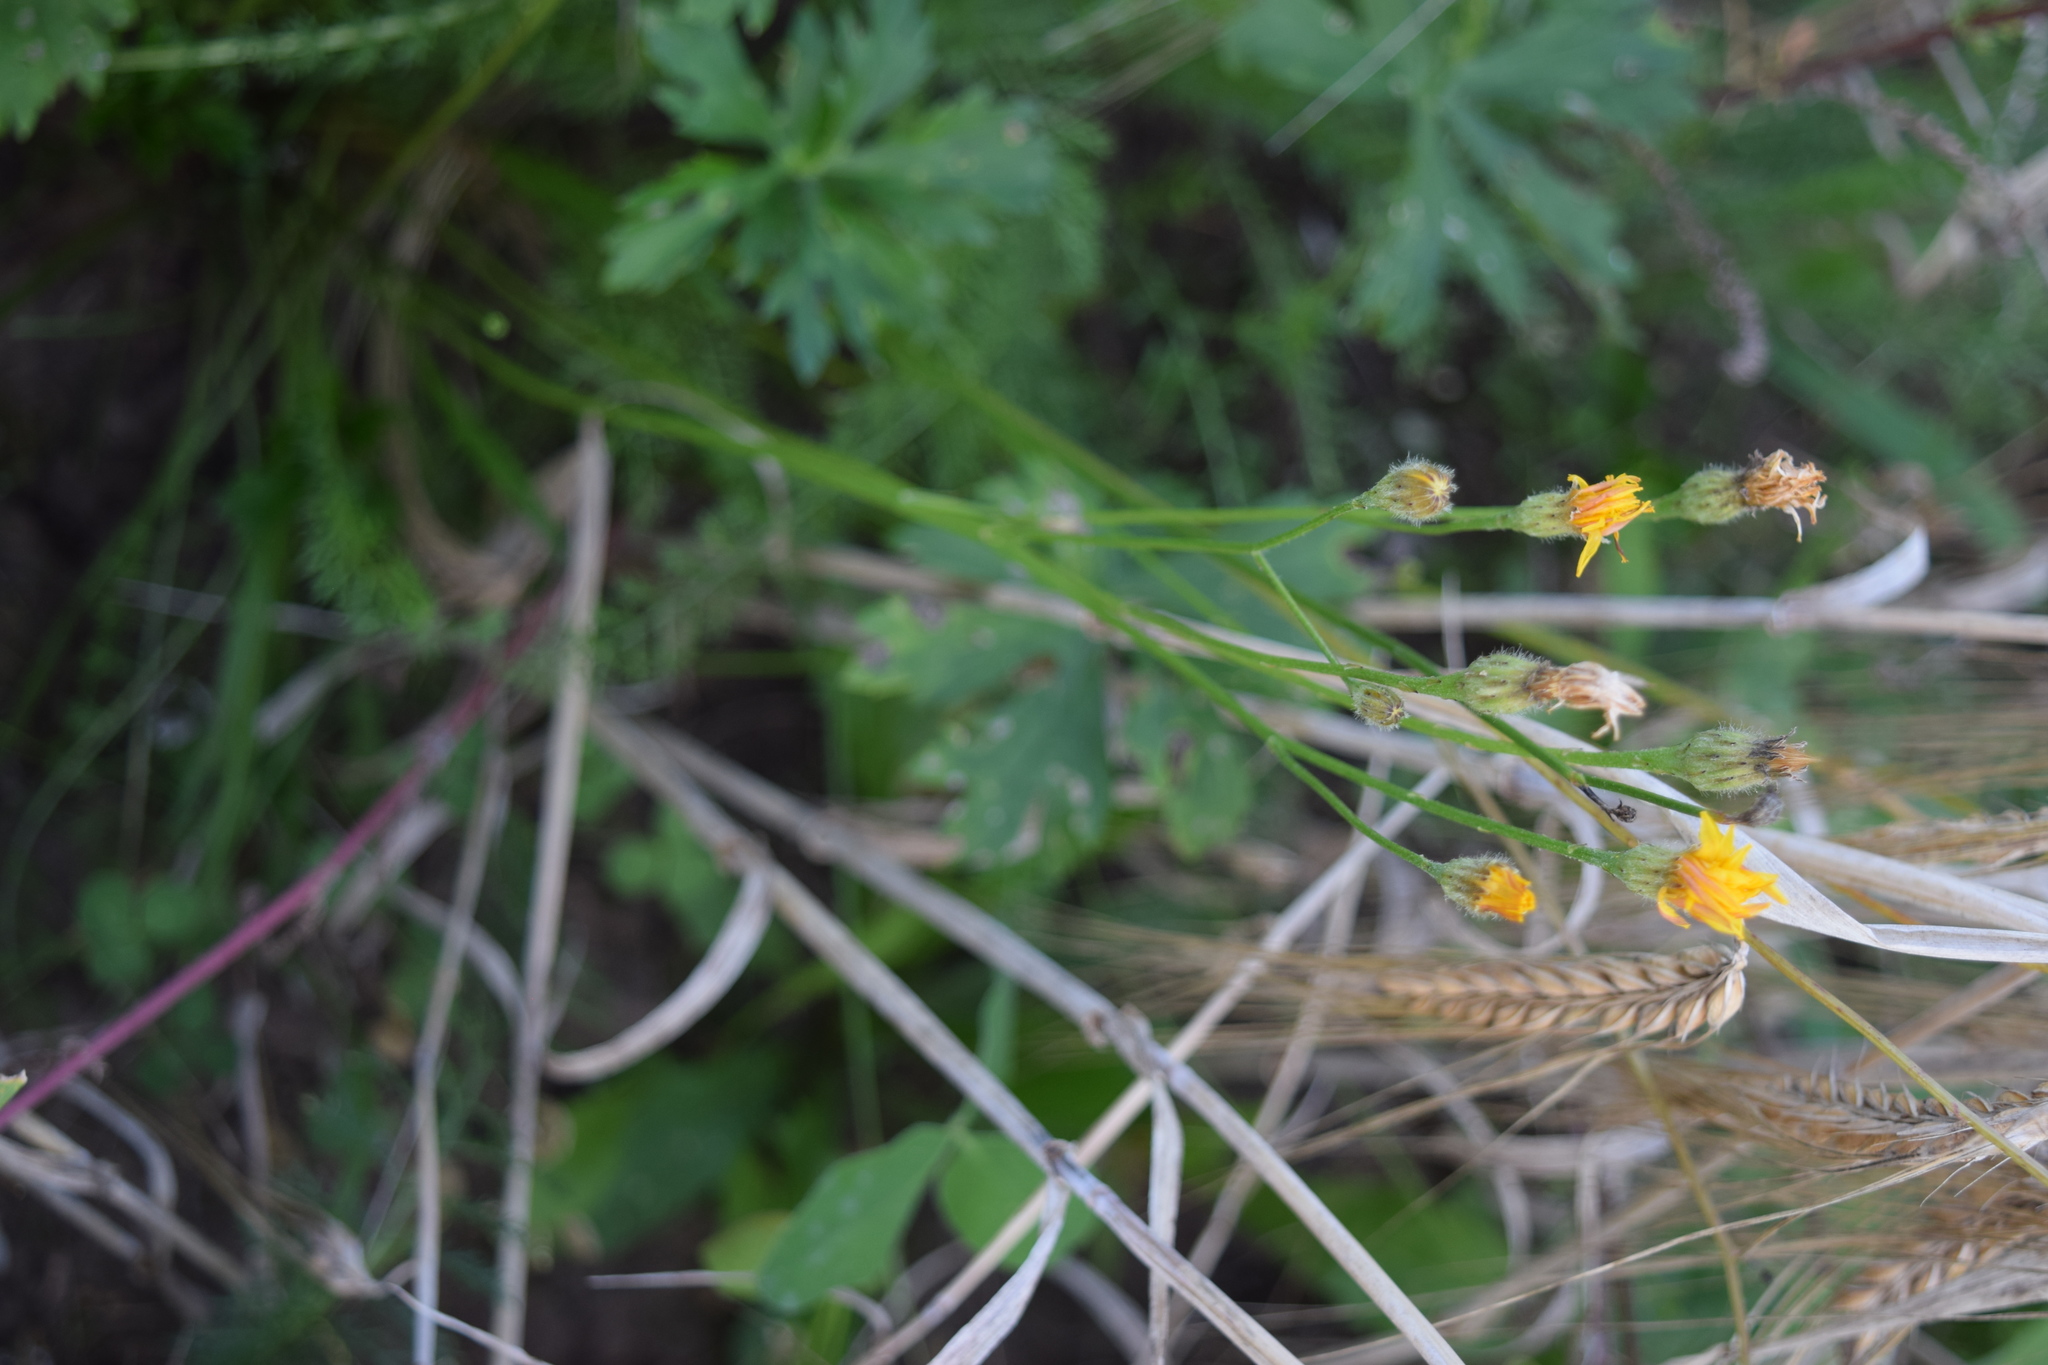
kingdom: Plantae
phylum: Tracheophyta
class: Magnoliopsida
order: Asterales
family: Asteraceae
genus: Scorzoneroides
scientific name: Scorzoneroides autumnalis
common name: Autumn hawkbit
